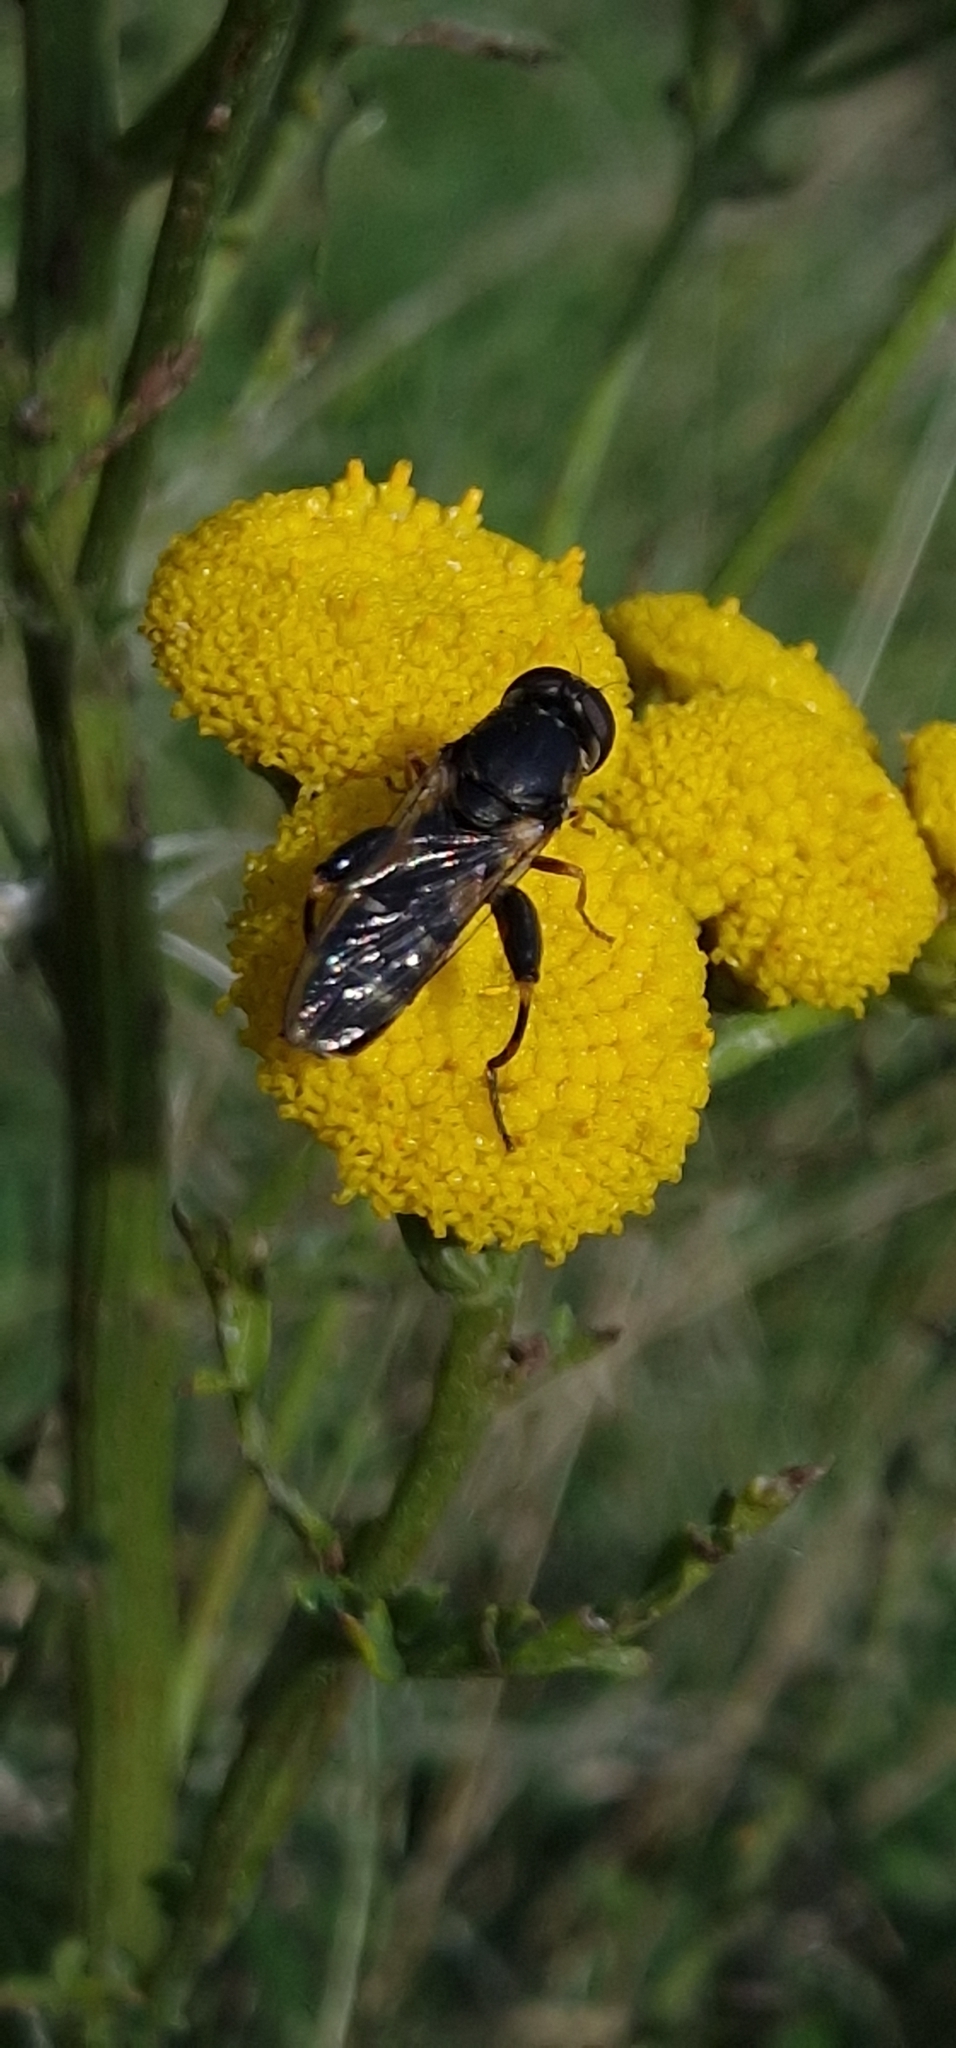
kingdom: Animalia
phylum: Arthropoda
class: Insecta
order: Diptera
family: Syrphidae
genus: Syritta
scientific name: Syritta pipiens
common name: Hover fly
